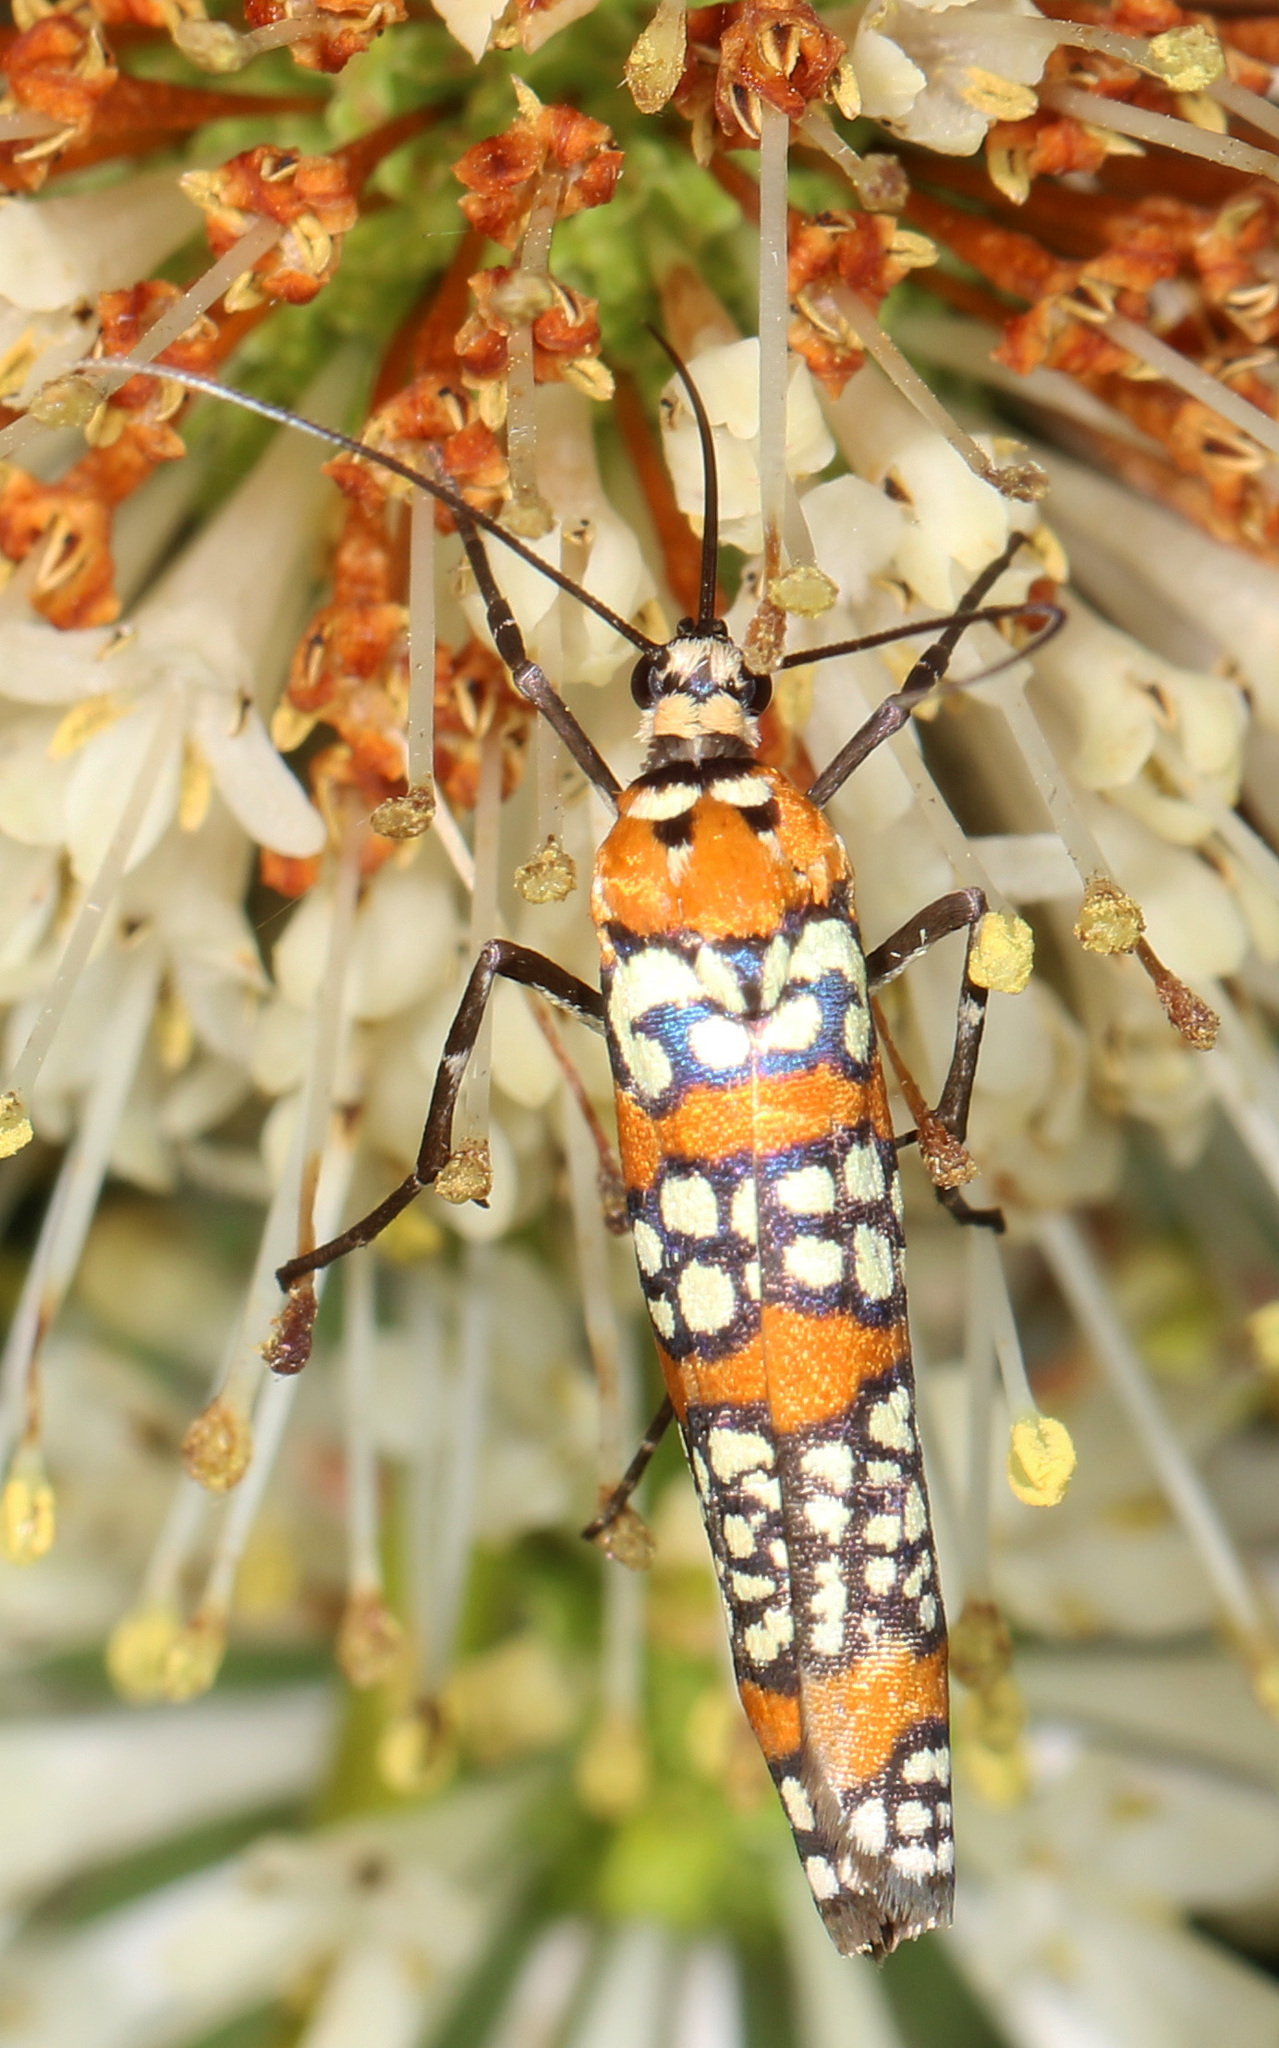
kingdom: Animalia
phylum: Arthropoda
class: Insecta
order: Lepidoptera
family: Attevidae
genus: Atteva
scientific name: Atteva punctella
